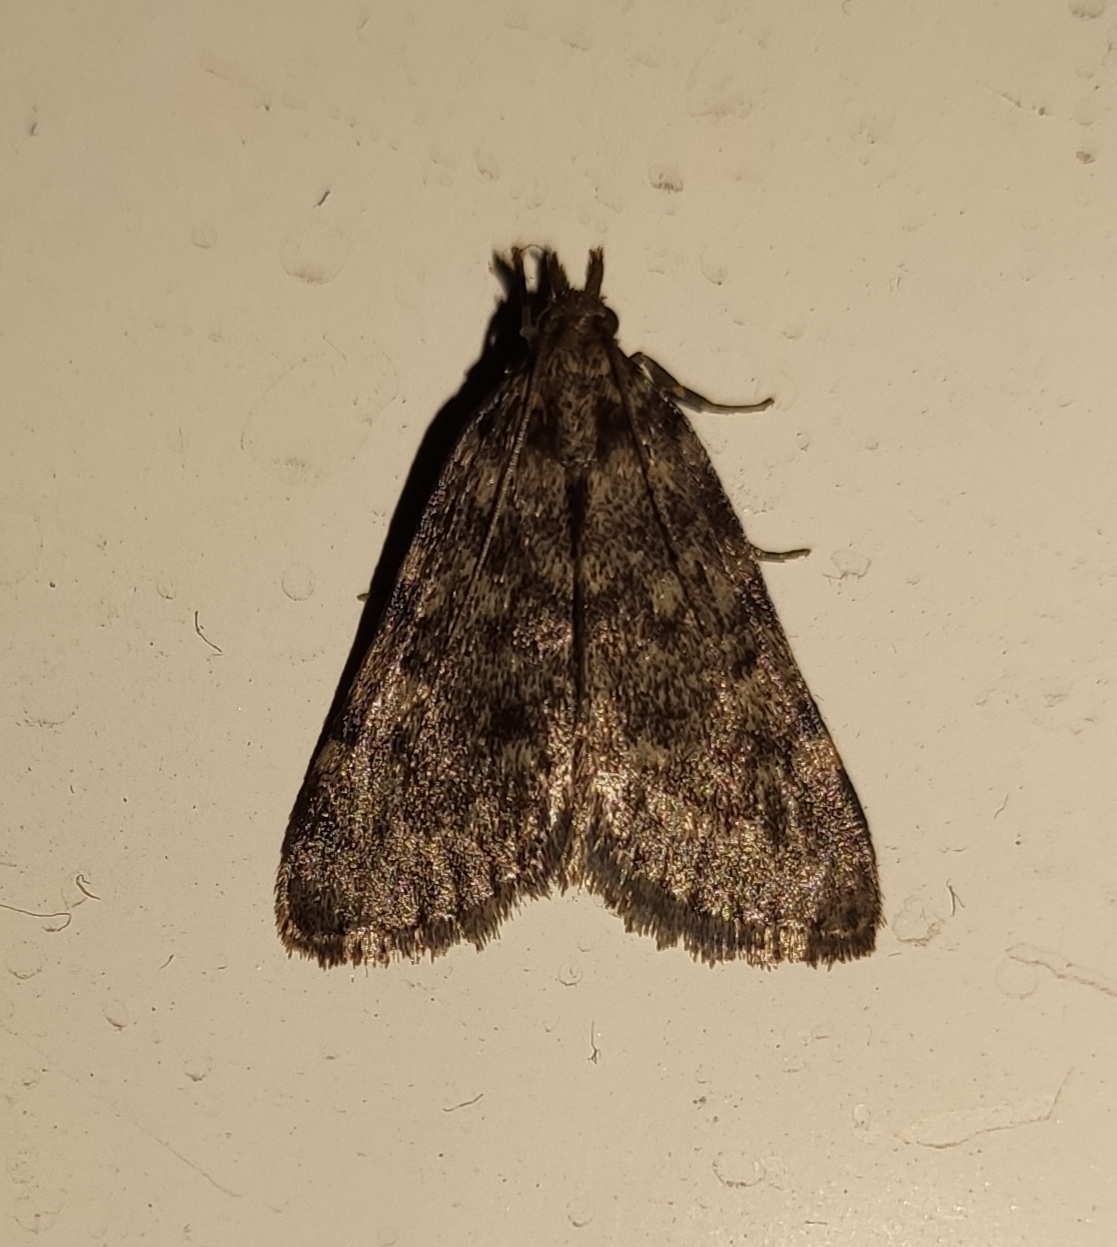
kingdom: Animalia
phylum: Arthropoda
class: Insecta
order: Lepidoptera
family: Pyralidae
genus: Aglossa
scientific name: Aglossa pinguinalis
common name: Large tabby
